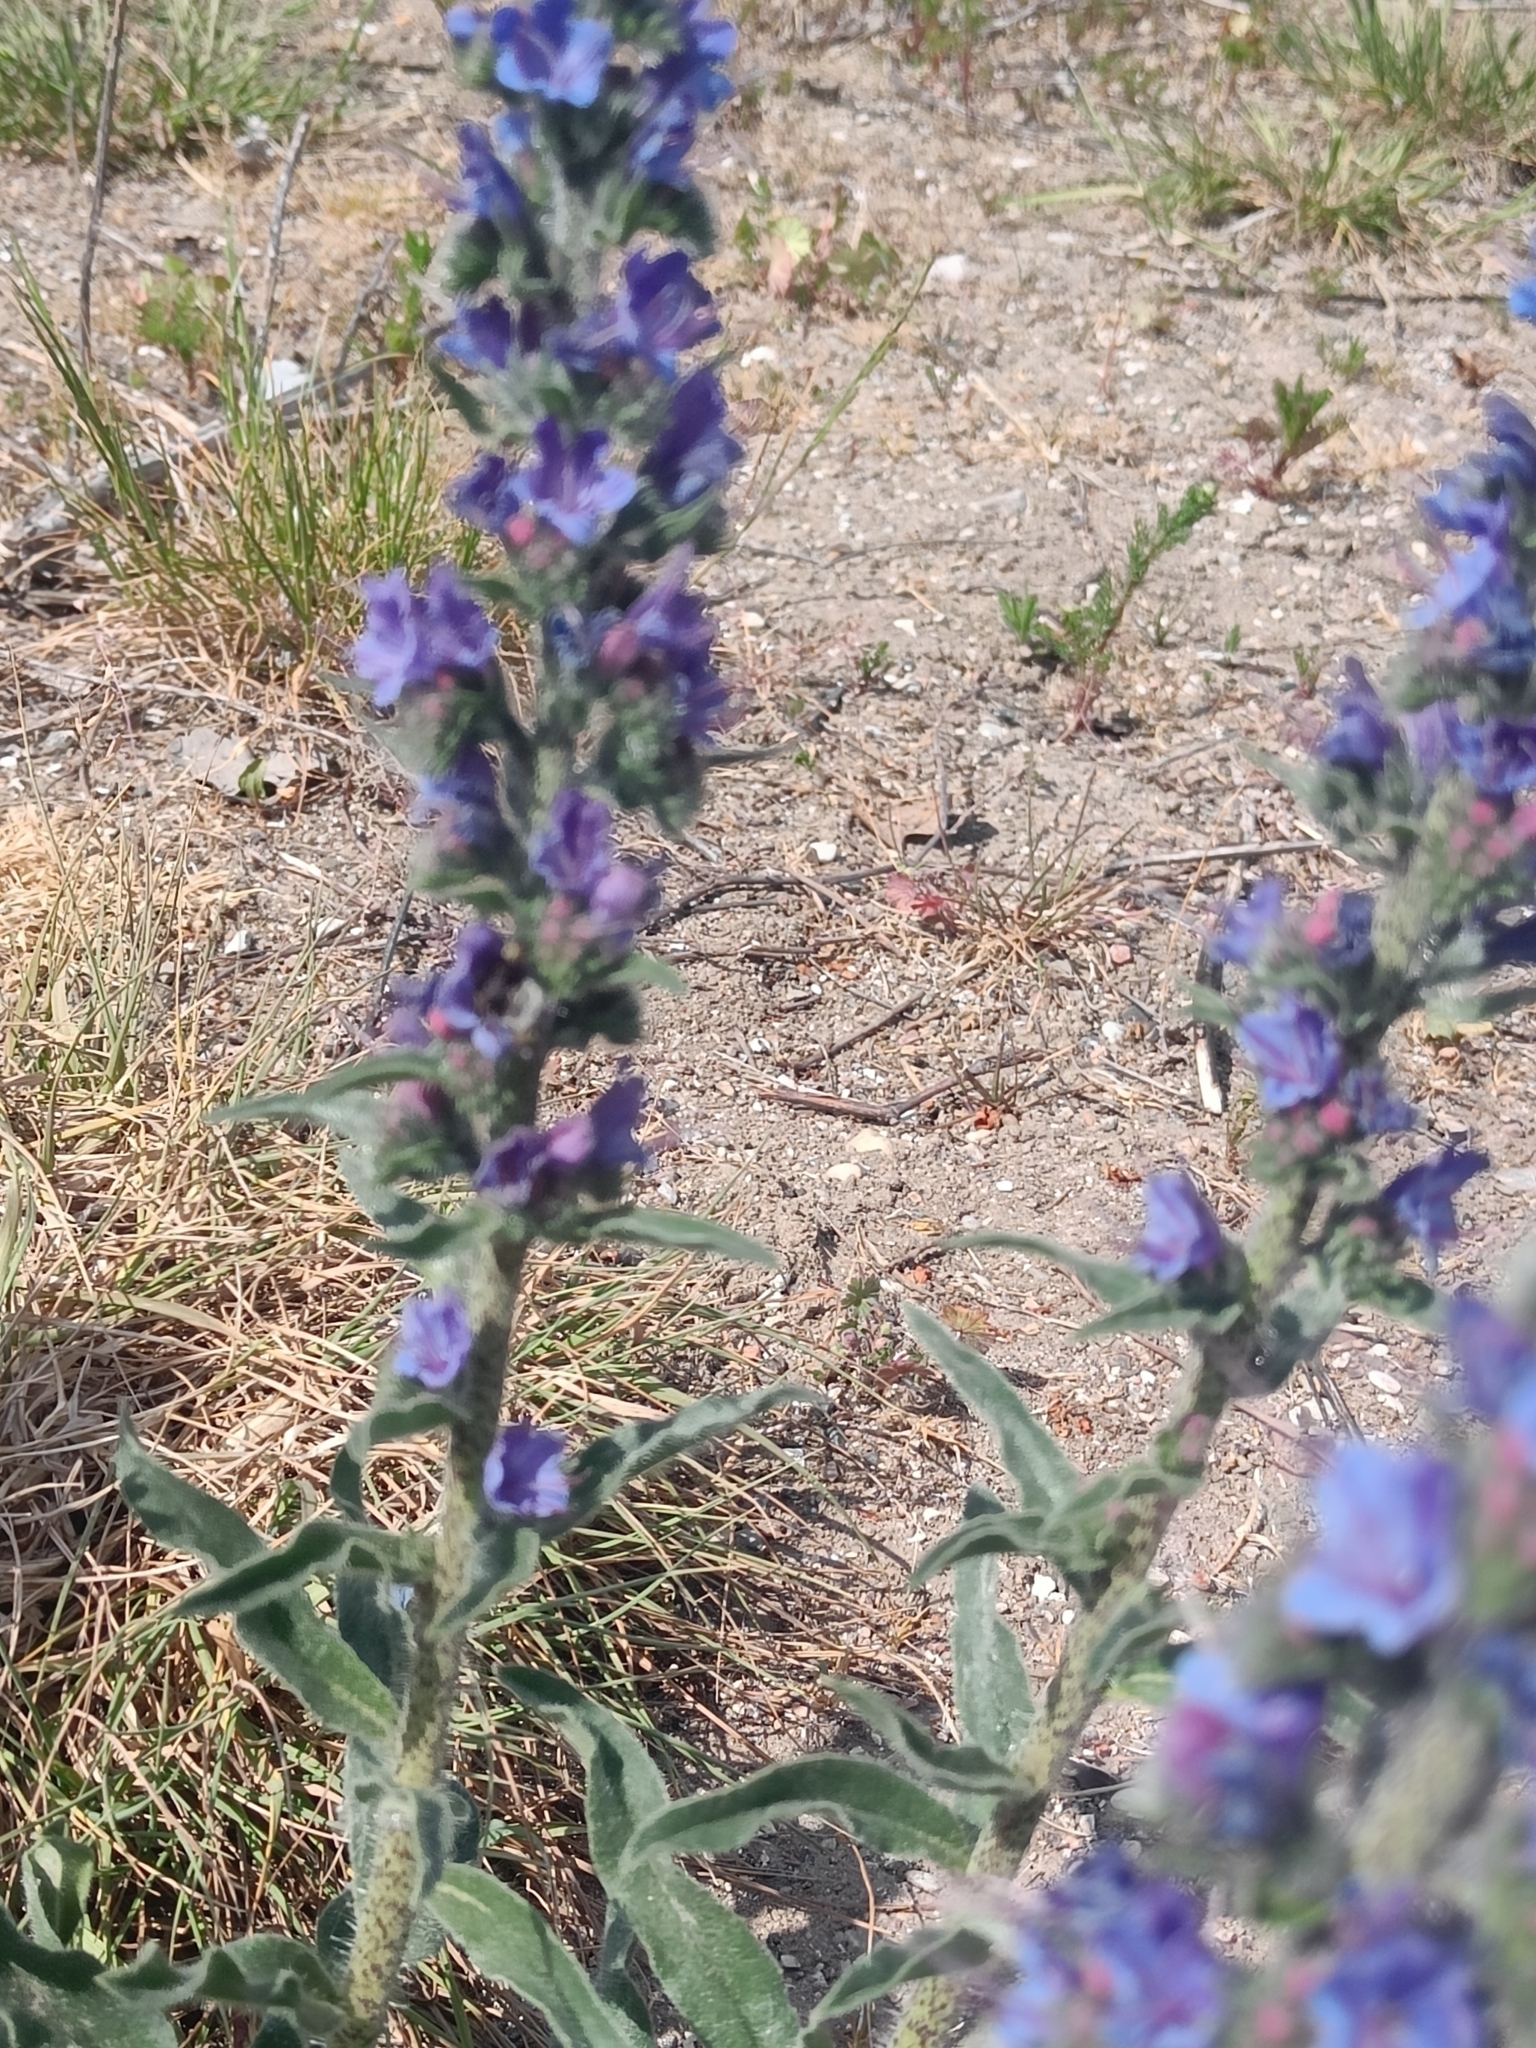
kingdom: Plantae
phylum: Tracheophyta
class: Magnoliopsida
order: Boraginales
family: Boraginaceae
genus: Echium
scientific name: Echium vulgare
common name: Common viper's bugloss
